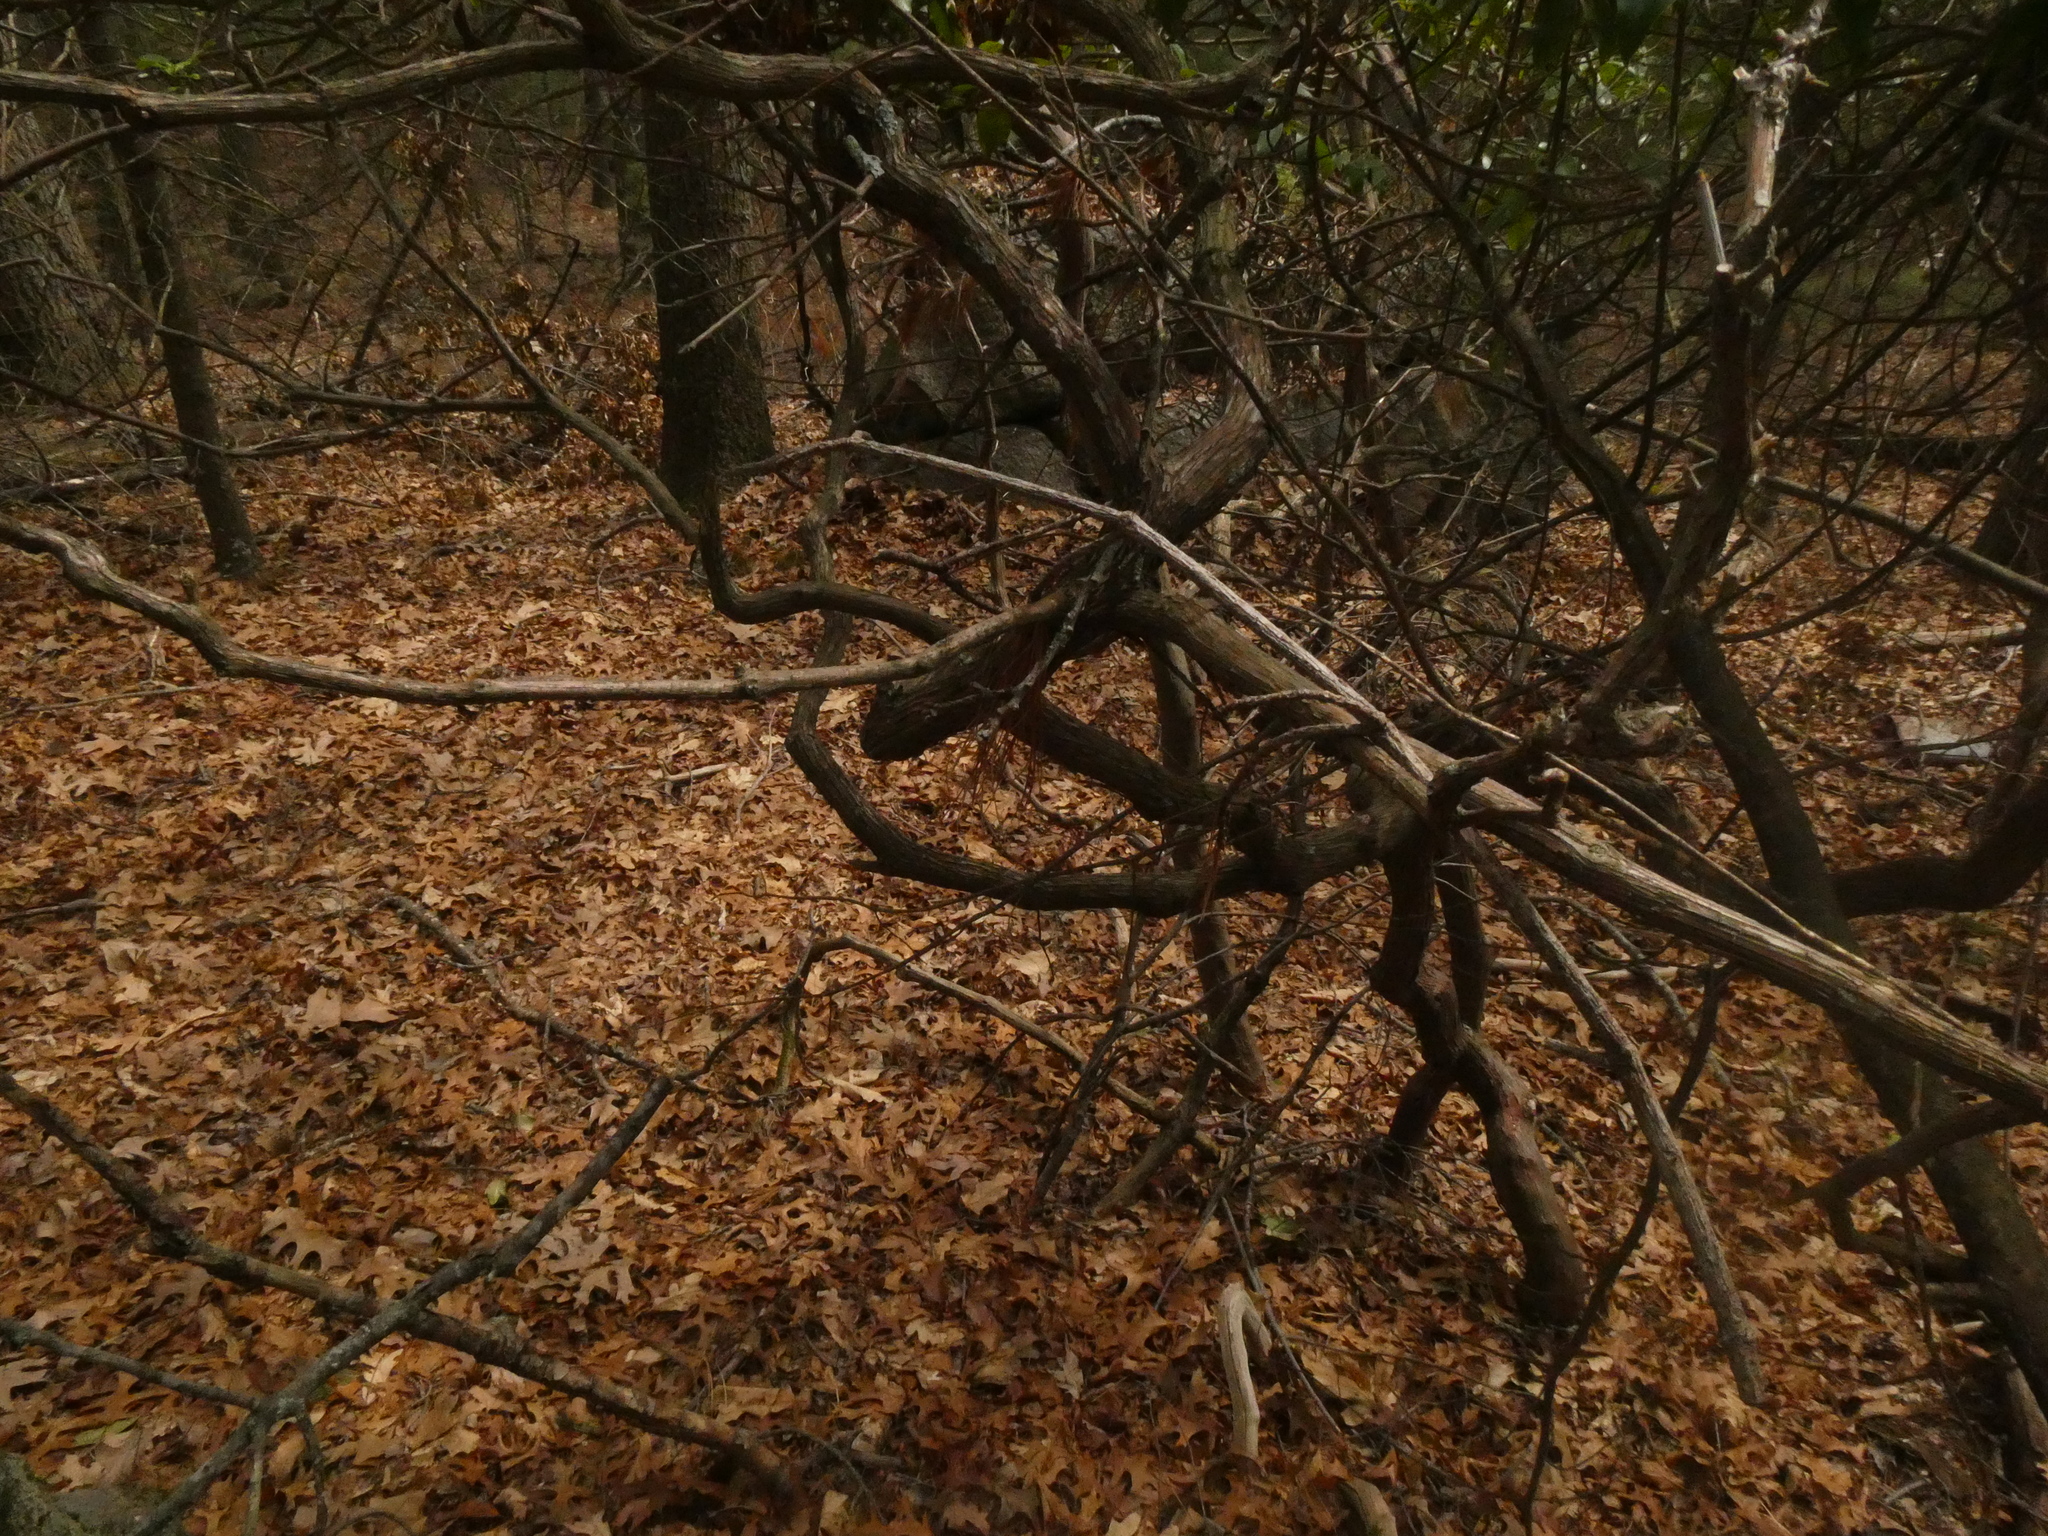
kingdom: Plantae
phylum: Tracheophyta
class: Magnoliopsida
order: Ericales
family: Ericaceae
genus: Kalmia
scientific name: Kalmia latifolia
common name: Mountain-laurel
